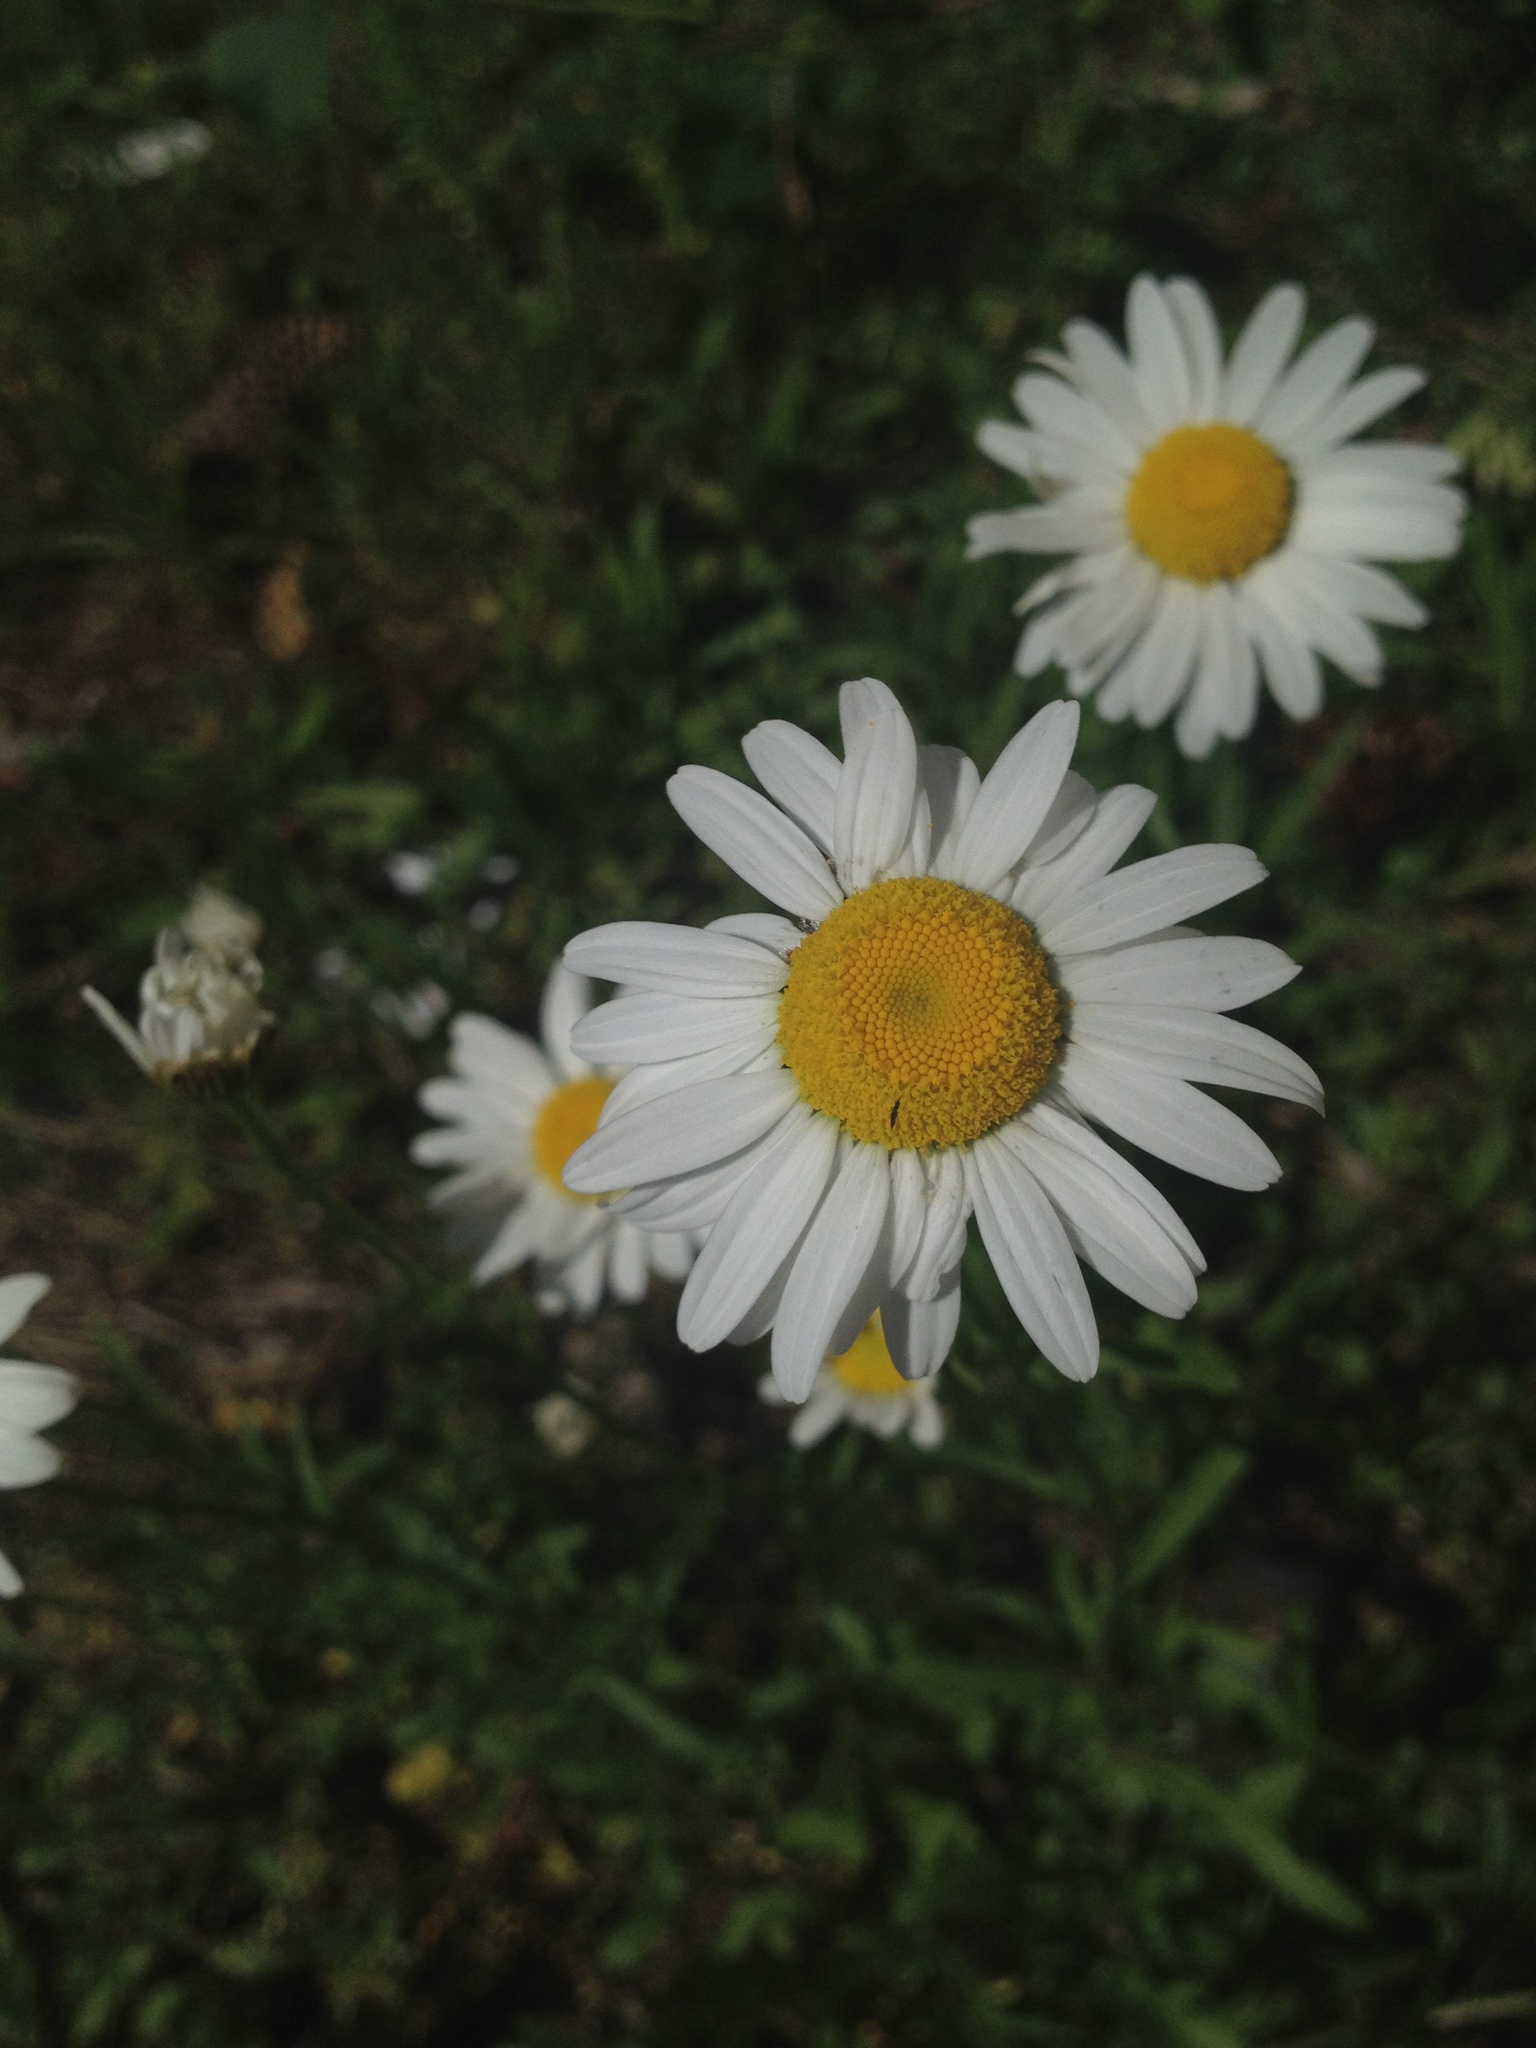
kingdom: Plantae
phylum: Tracheophyta
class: Magnoliopsida
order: Asterales
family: Asteraceae
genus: Leucanthemum
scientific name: Leucanthemum vulgare
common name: Oxeye daisy
